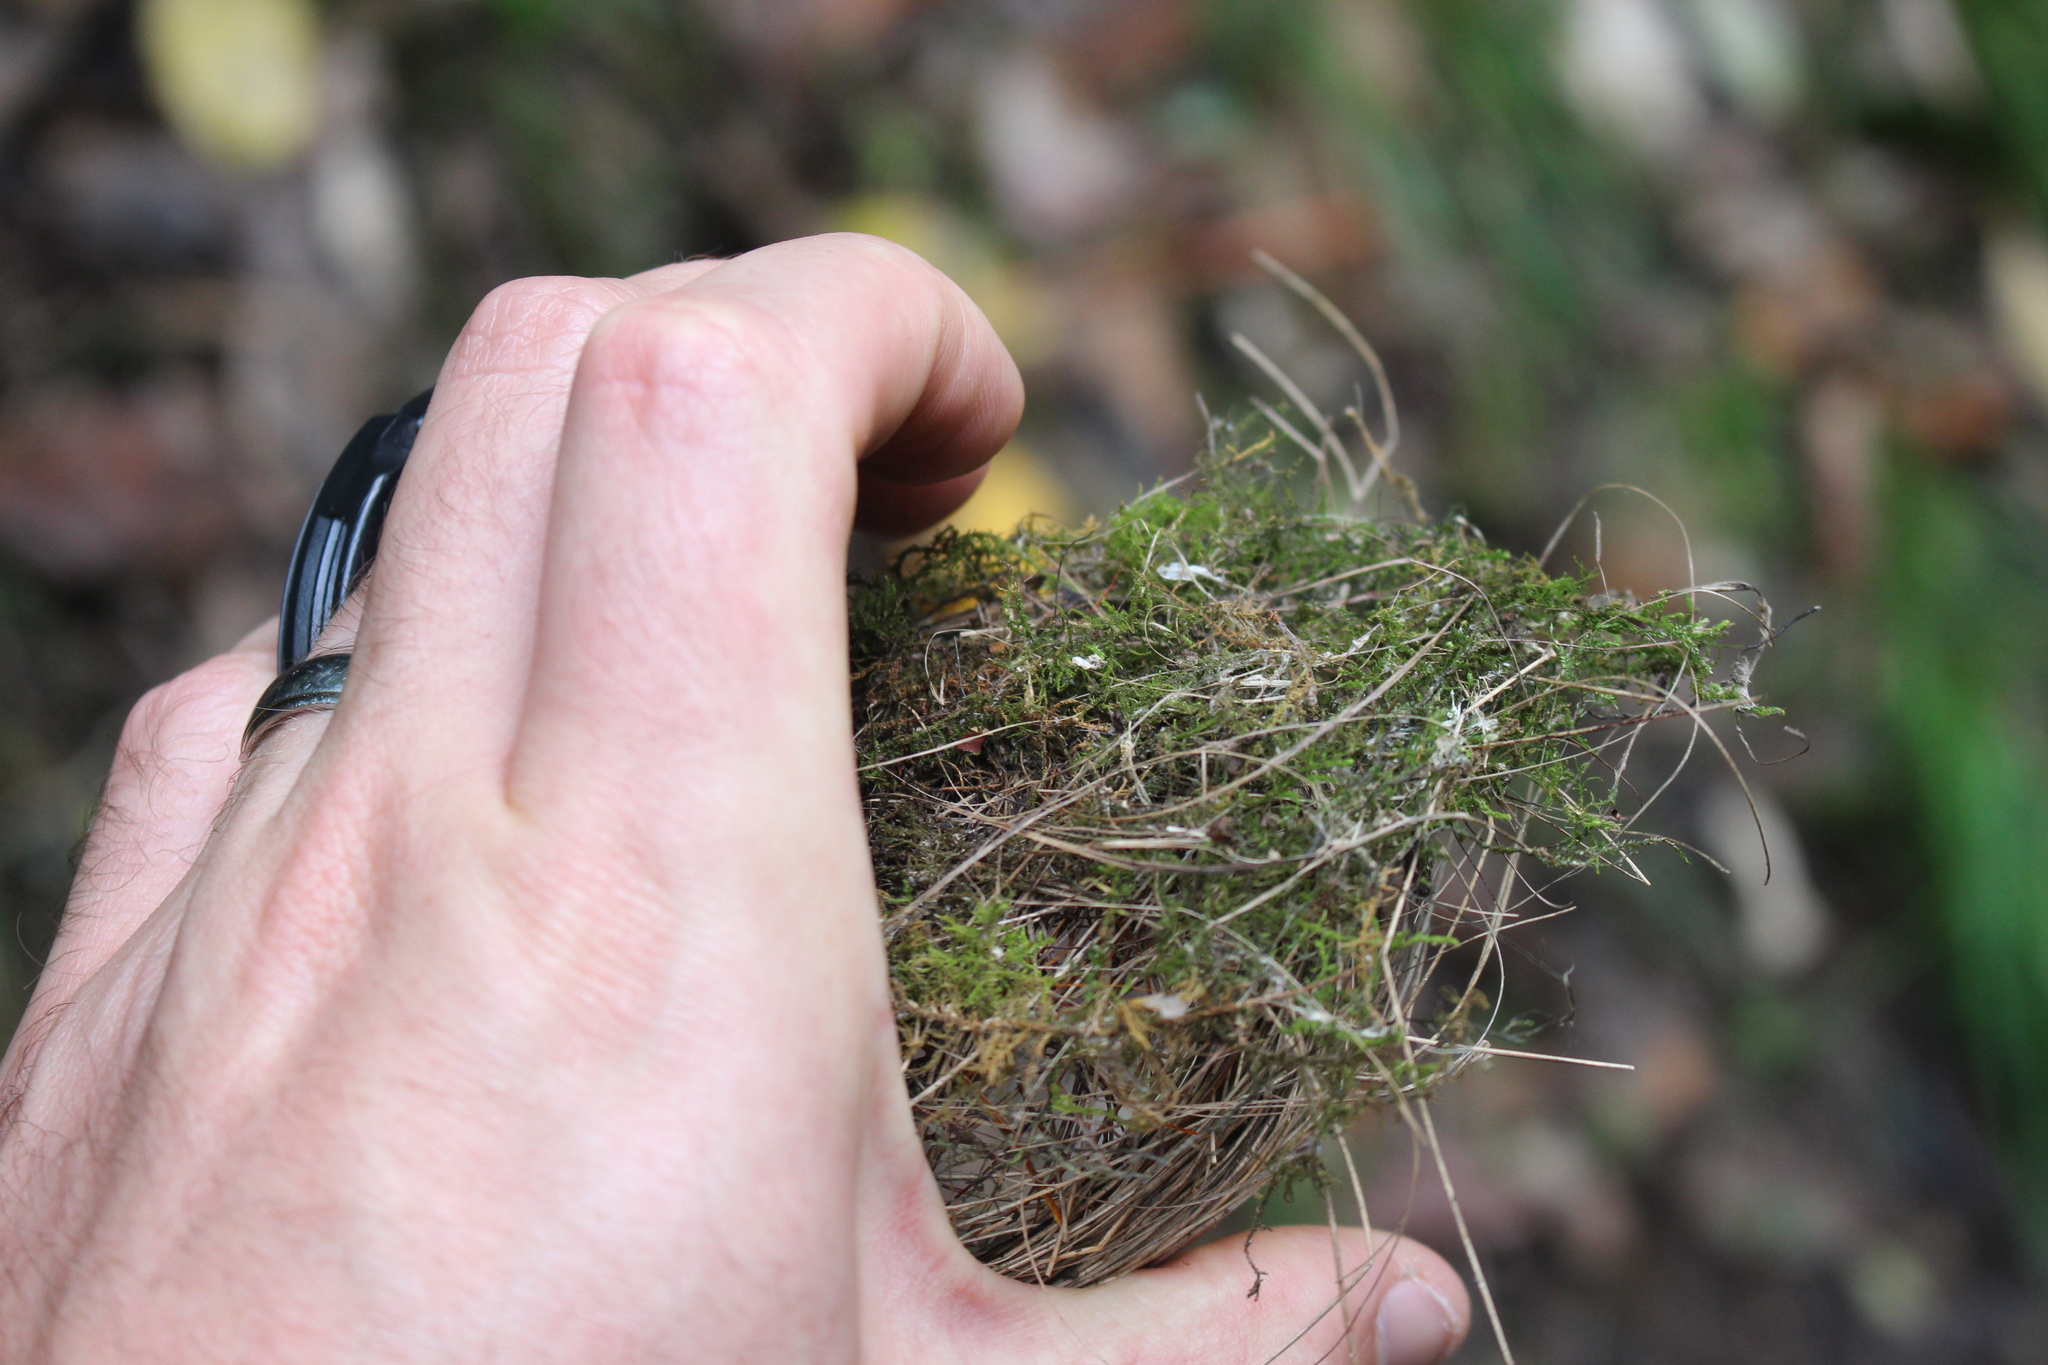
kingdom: Animalia
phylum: Chordata
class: Aves
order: Passeriformes
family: Zosteropidae
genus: Zosterops
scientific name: Zosterops lateralis
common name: Silvereye
